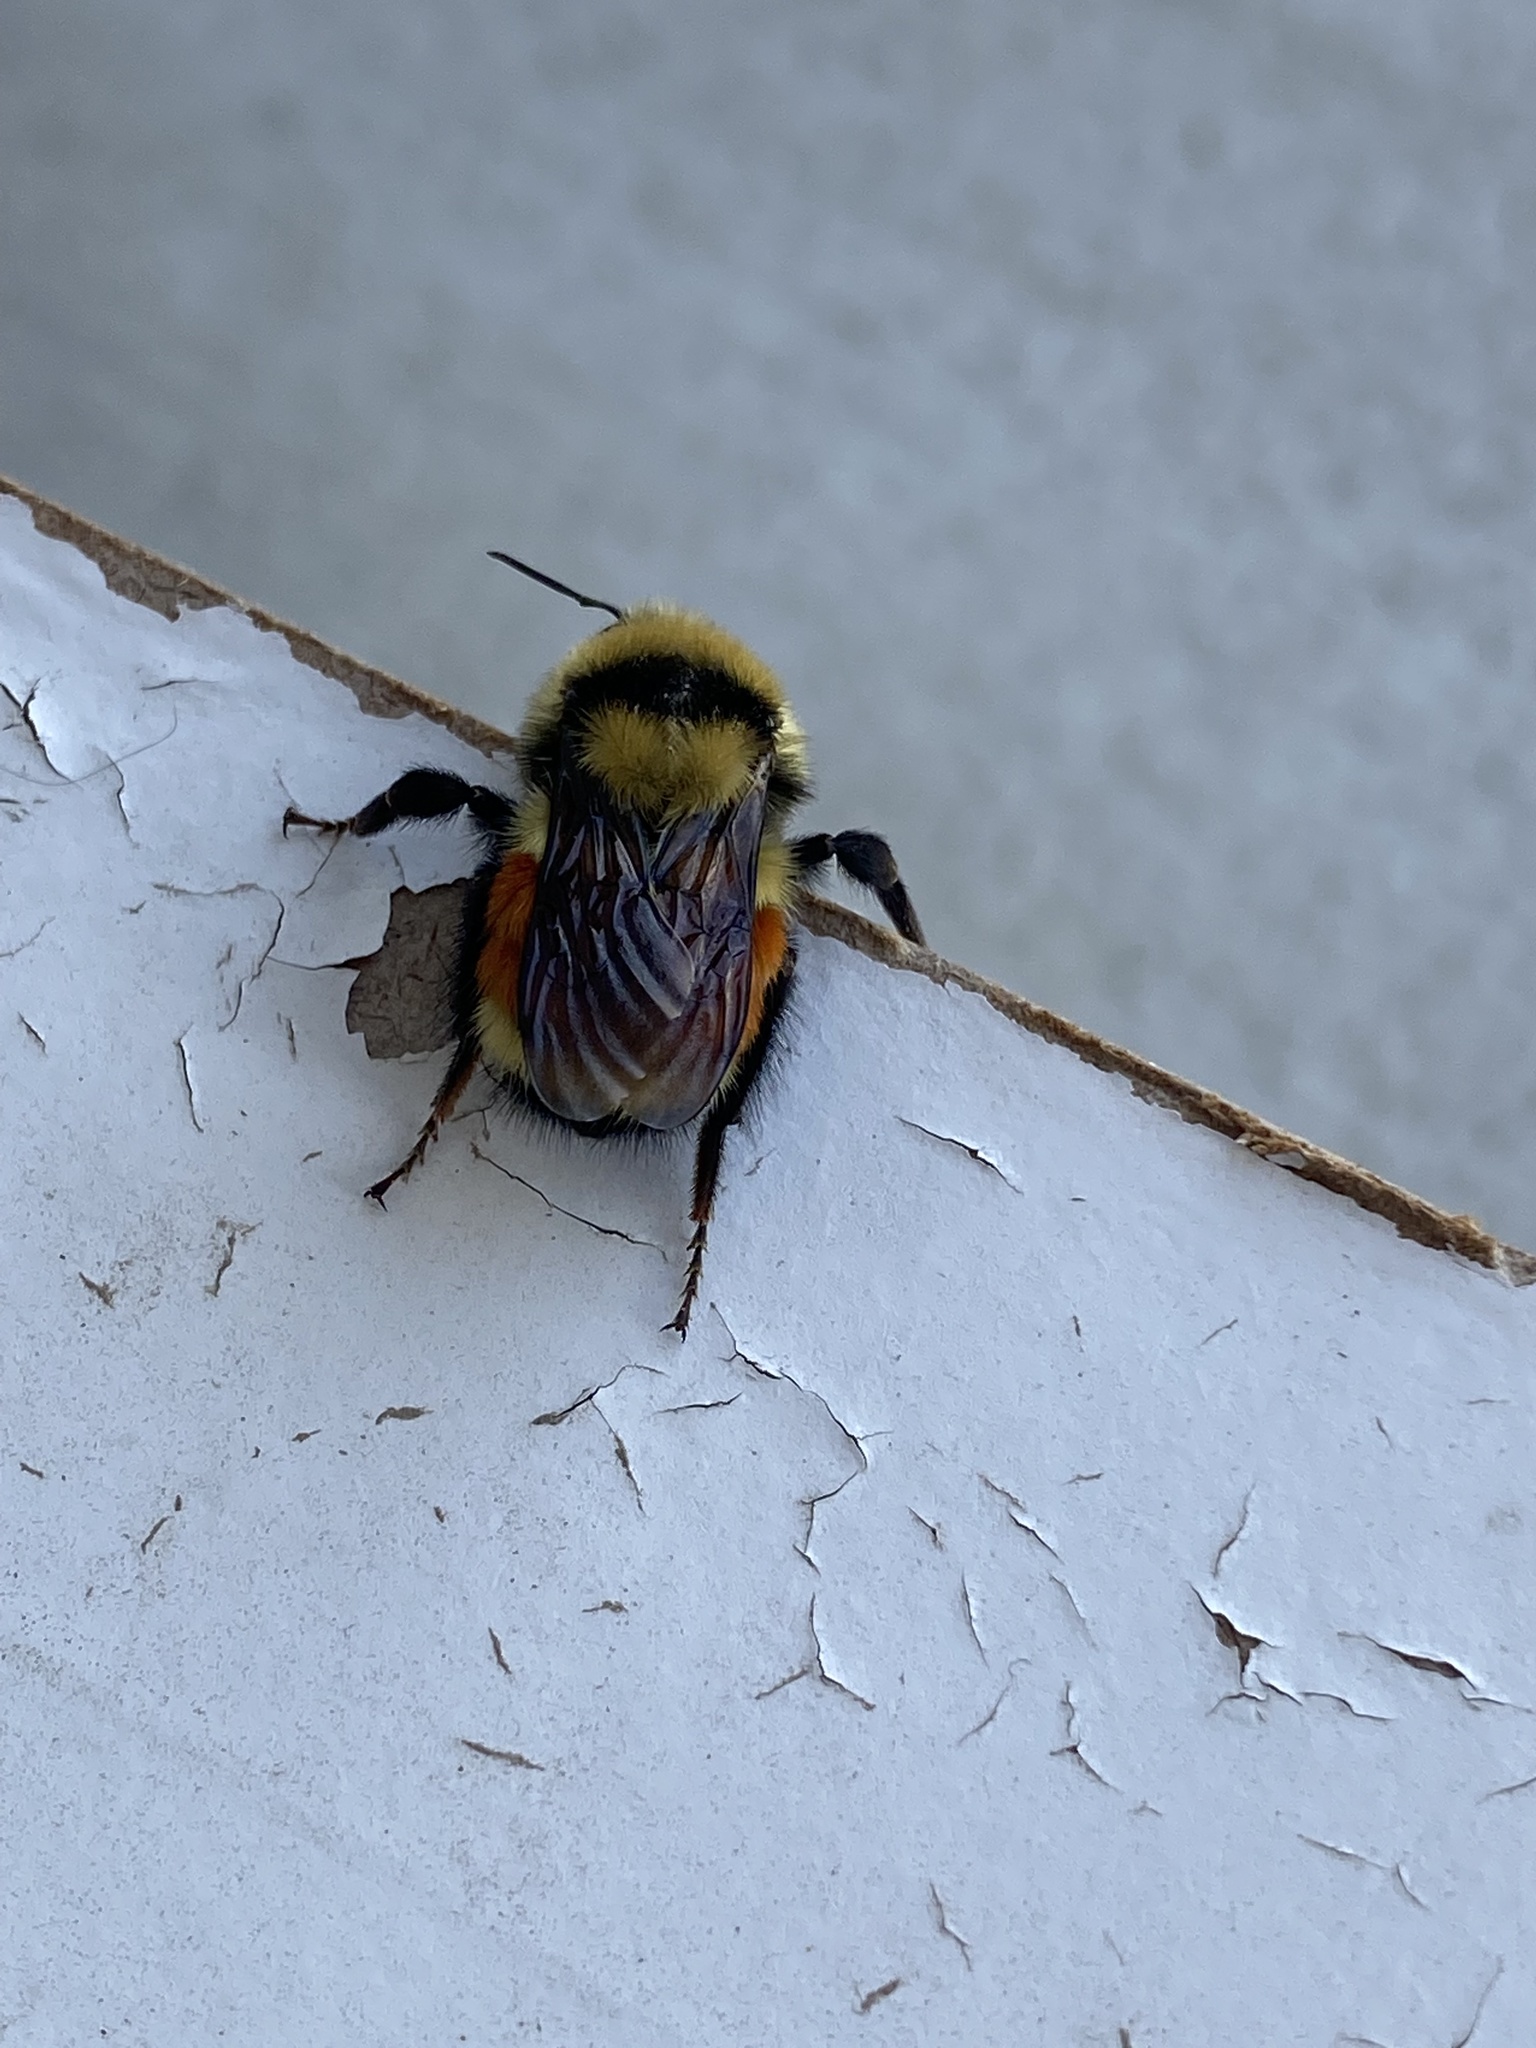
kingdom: Animalia
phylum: Arthropoda
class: Insecta
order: Hymenoptera
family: Apidae
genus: Bombus
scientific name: Bombus huntii
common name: Hunt bumble bee
